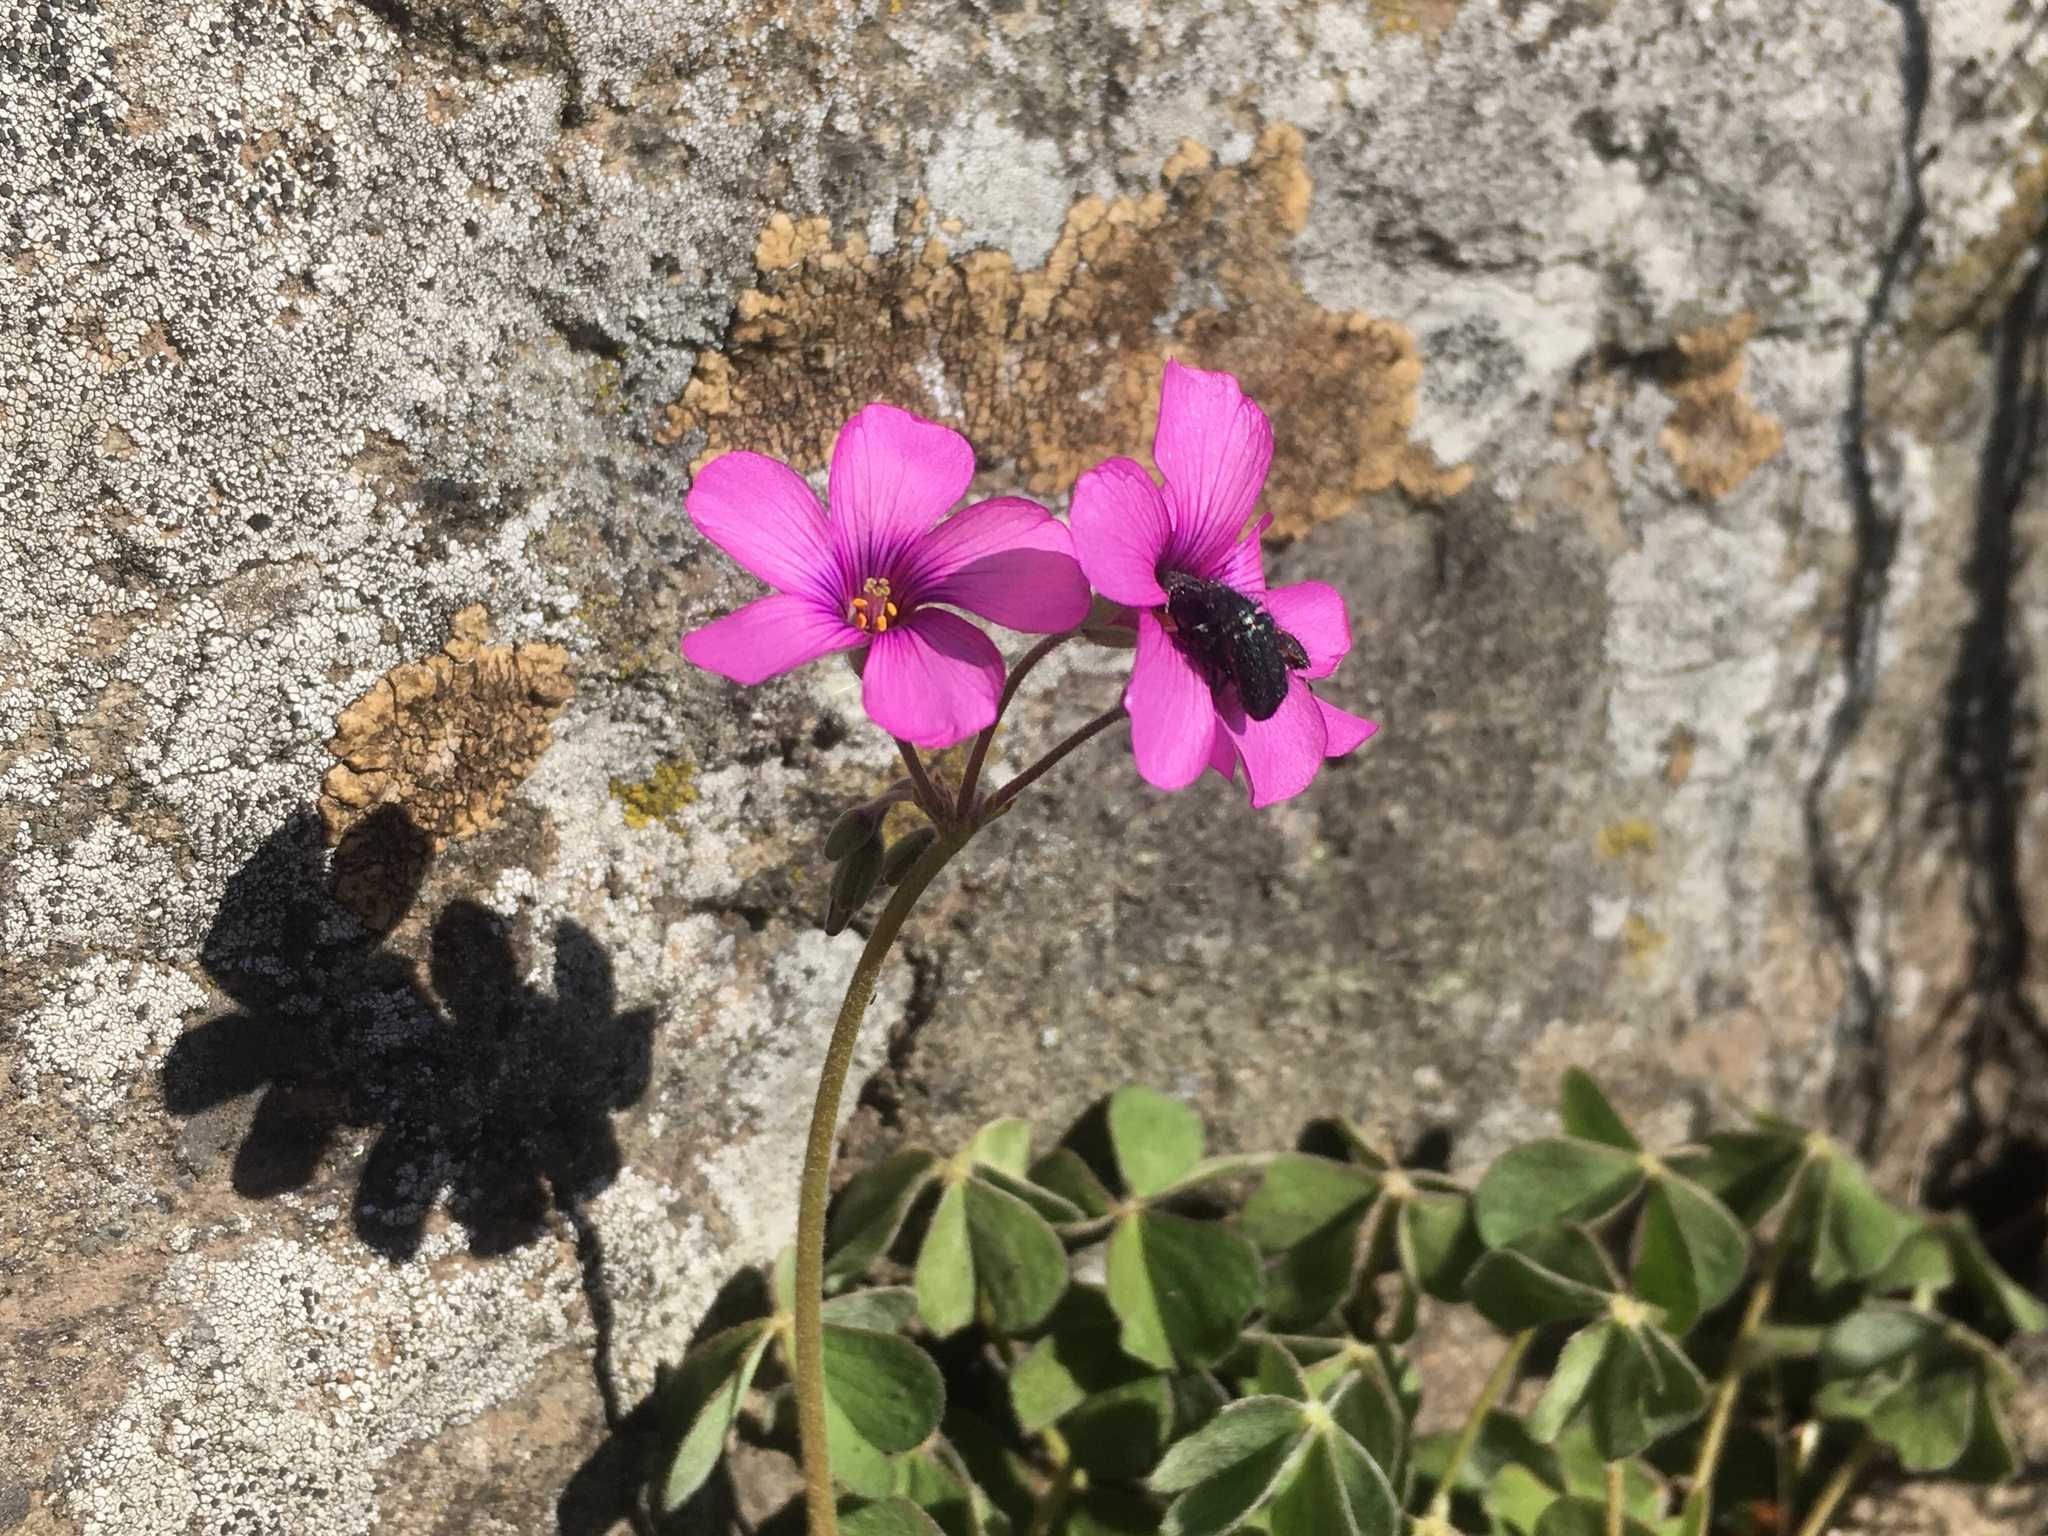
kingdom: Plantae
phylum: Tracheophyta
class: Magnoliopsida
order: Oxalidales
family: Oxalidaceae
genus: Oxalis
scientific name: Oxalis articulata
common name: Pink-sorrel
